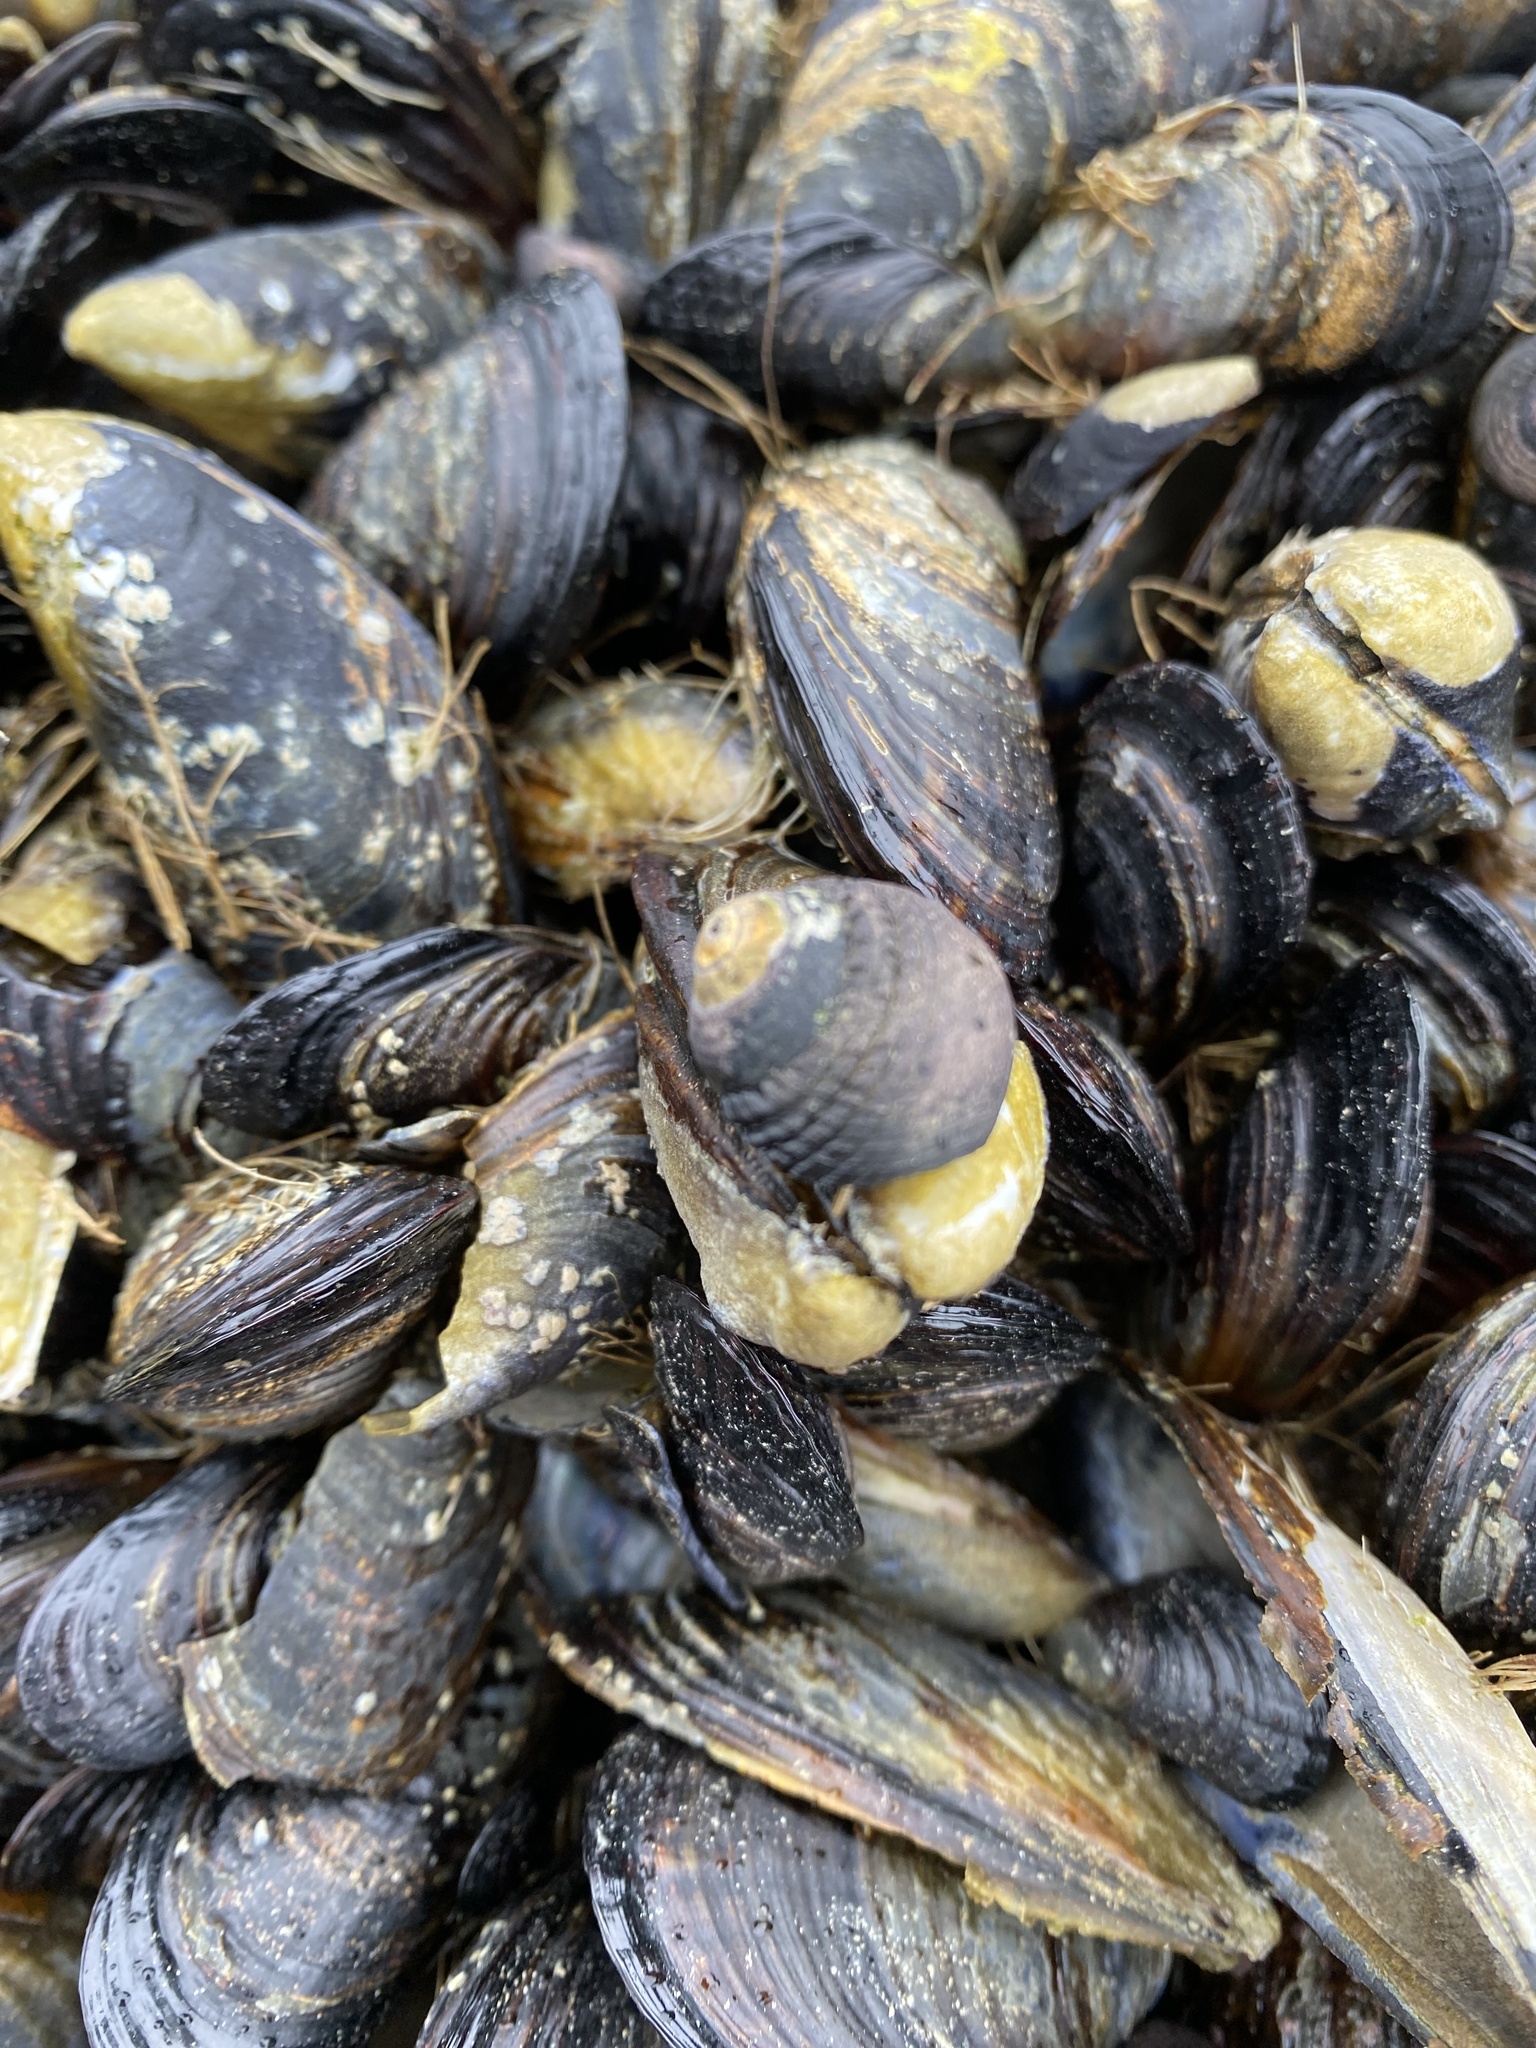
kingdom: Animalia
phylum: Mollusca
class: Gastropoda
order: Trochida
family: Tegulidae
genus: Tegula
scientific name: Tegula funebralis
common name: Black tegula
